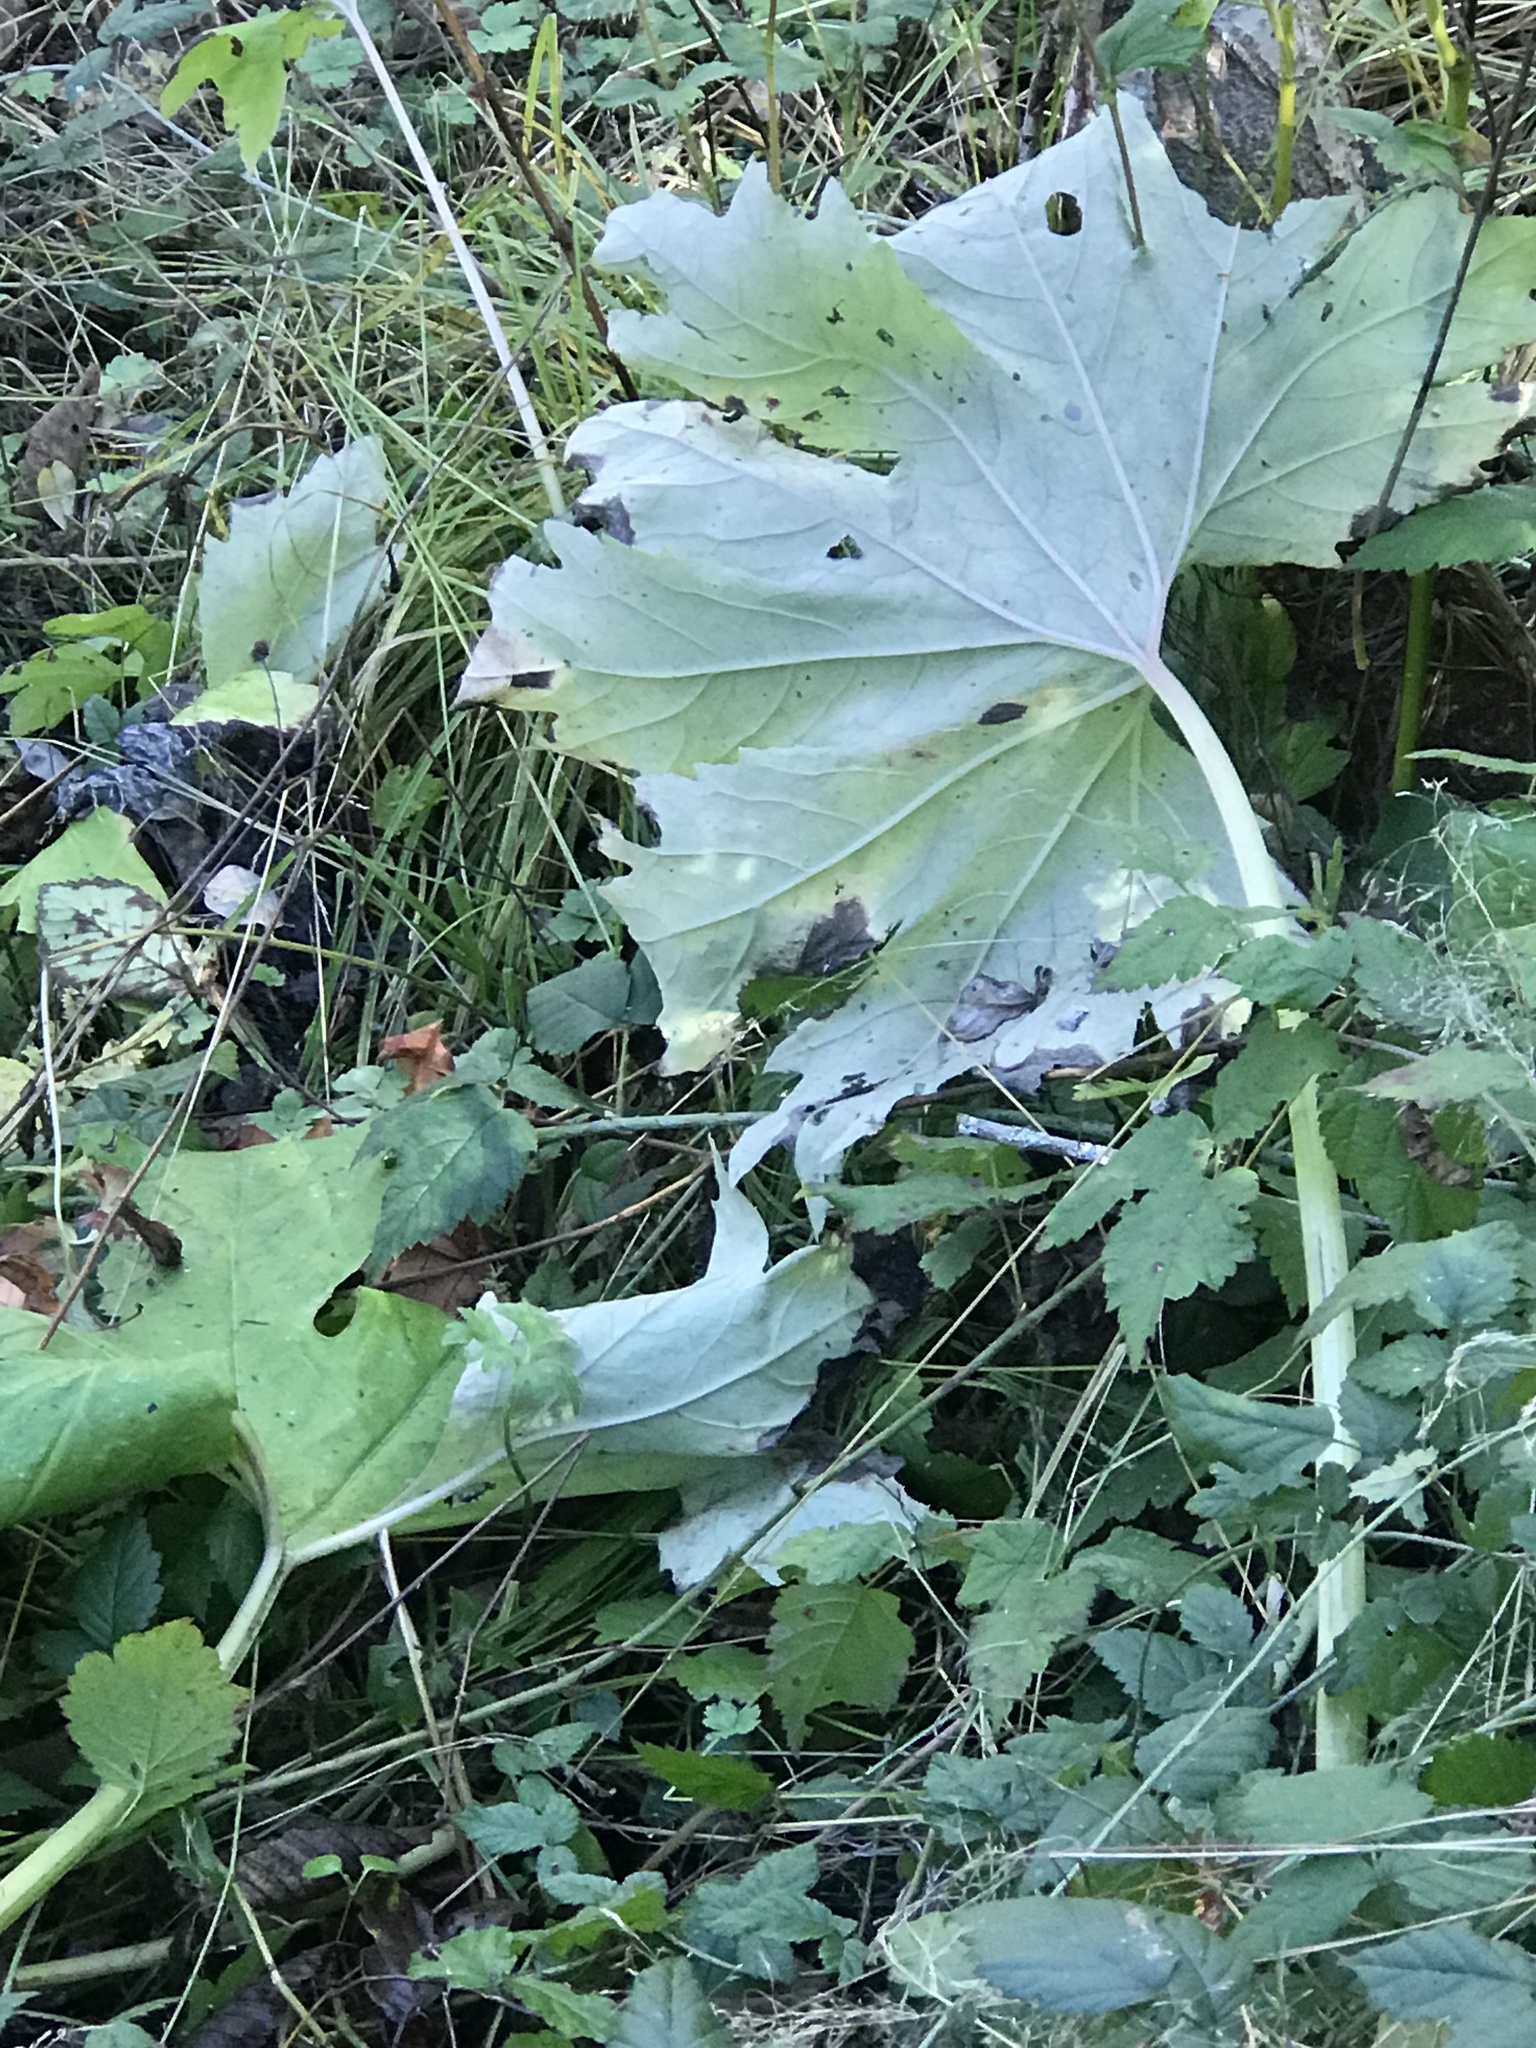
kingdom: Plantae
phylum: Tracheophyta
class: Magnoliopsida
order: Asterales
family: Asteraceae
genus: Petasites
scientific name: Petasites frigidus
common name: Arctic butterbur
